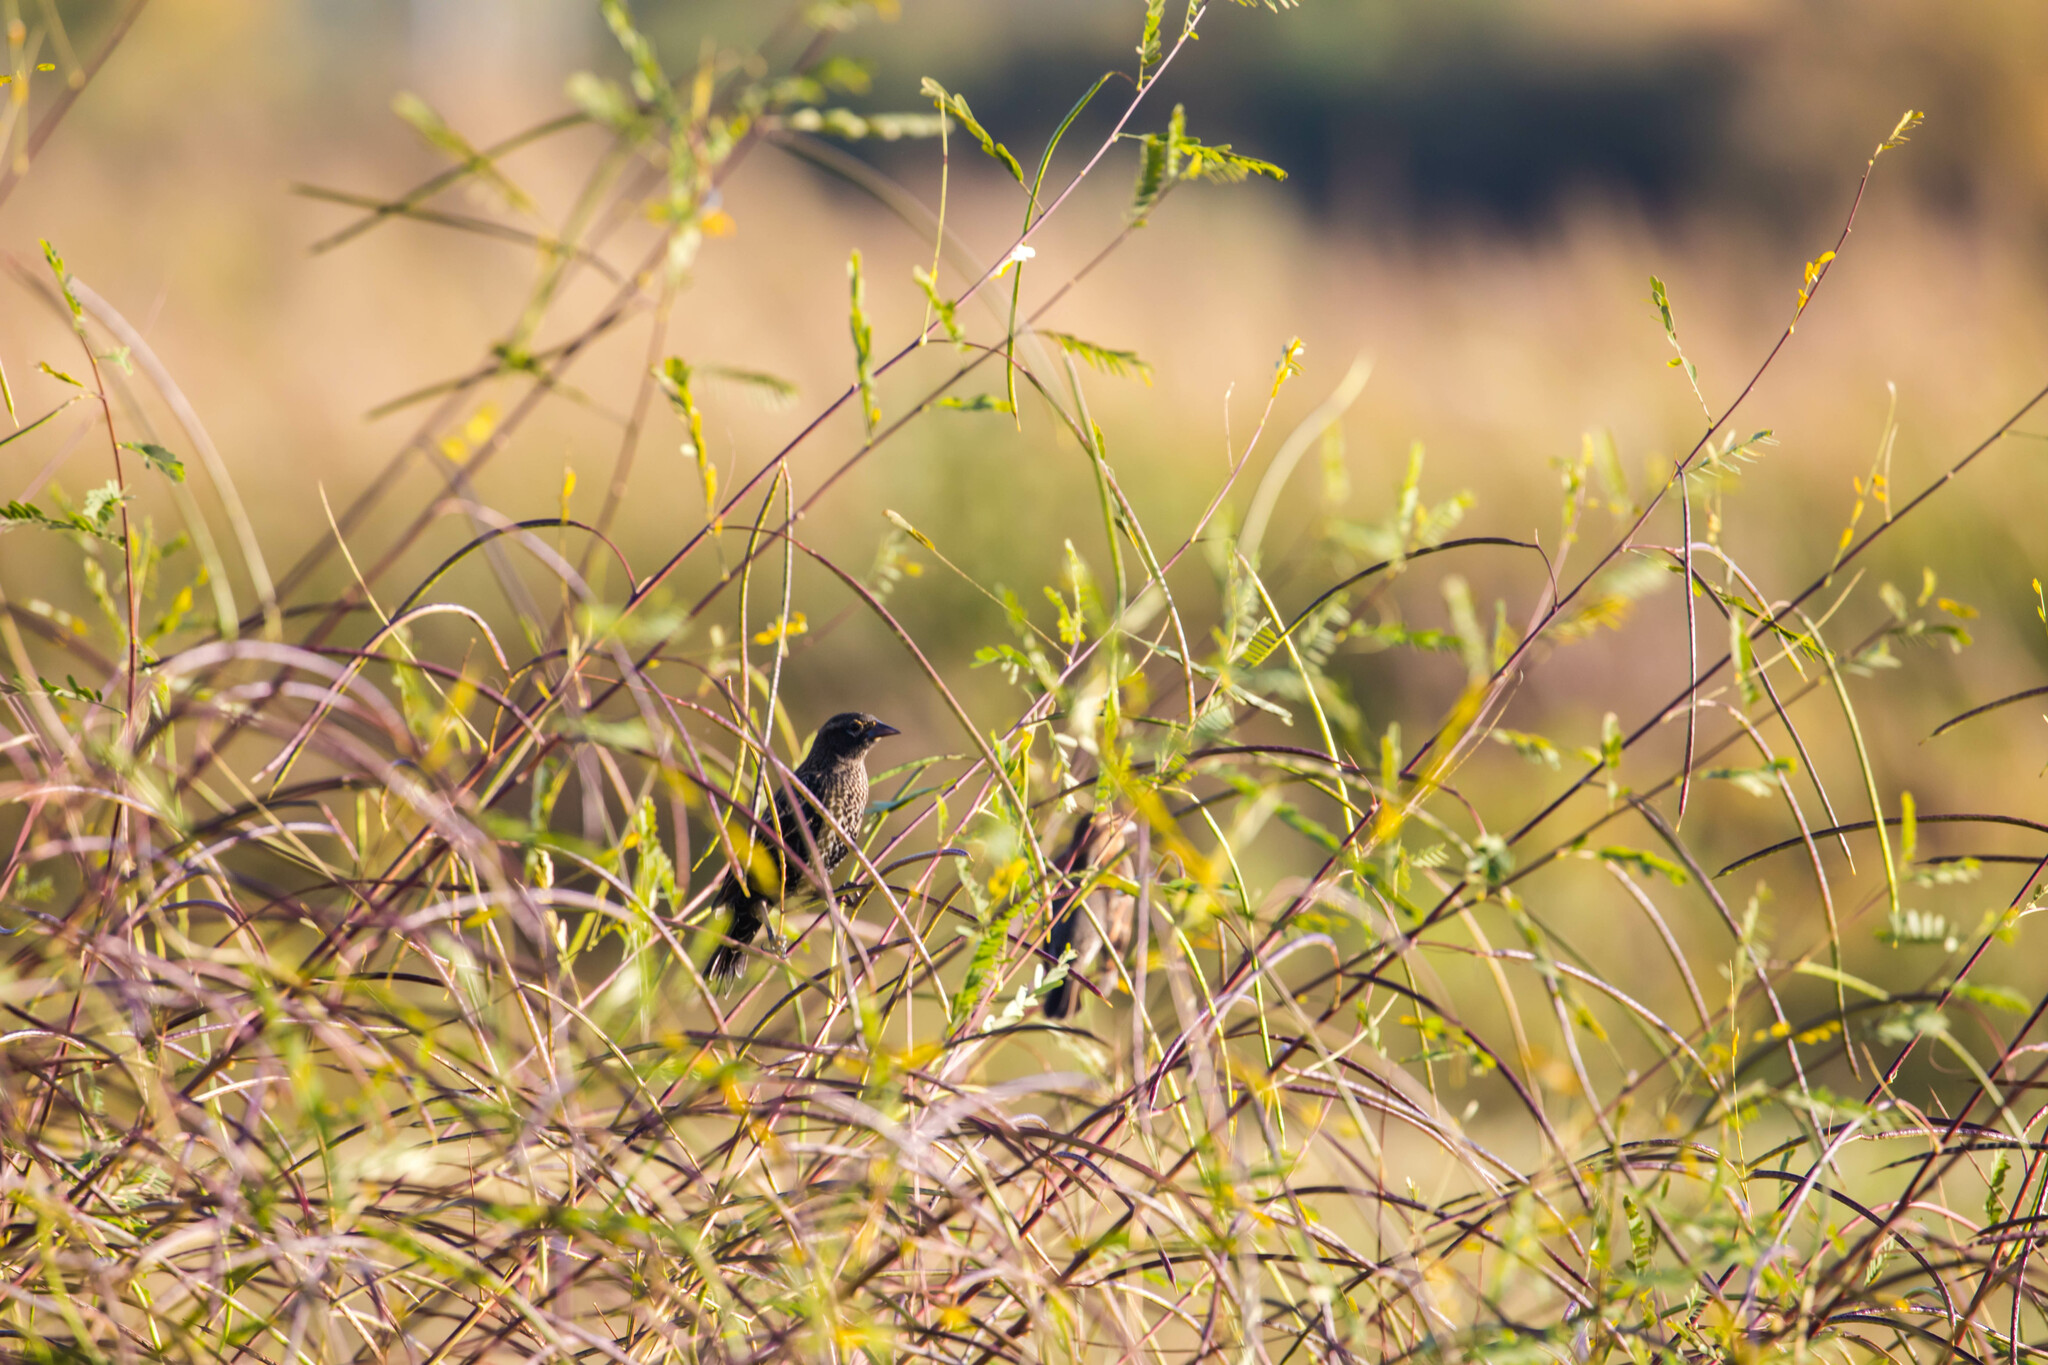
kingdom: Animalia
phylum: Chordata
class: Aves
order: Passeriformes
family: Icteridae
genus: Agelaius
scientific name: Agelaius phoeniceus
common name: Red-winged blackbird
